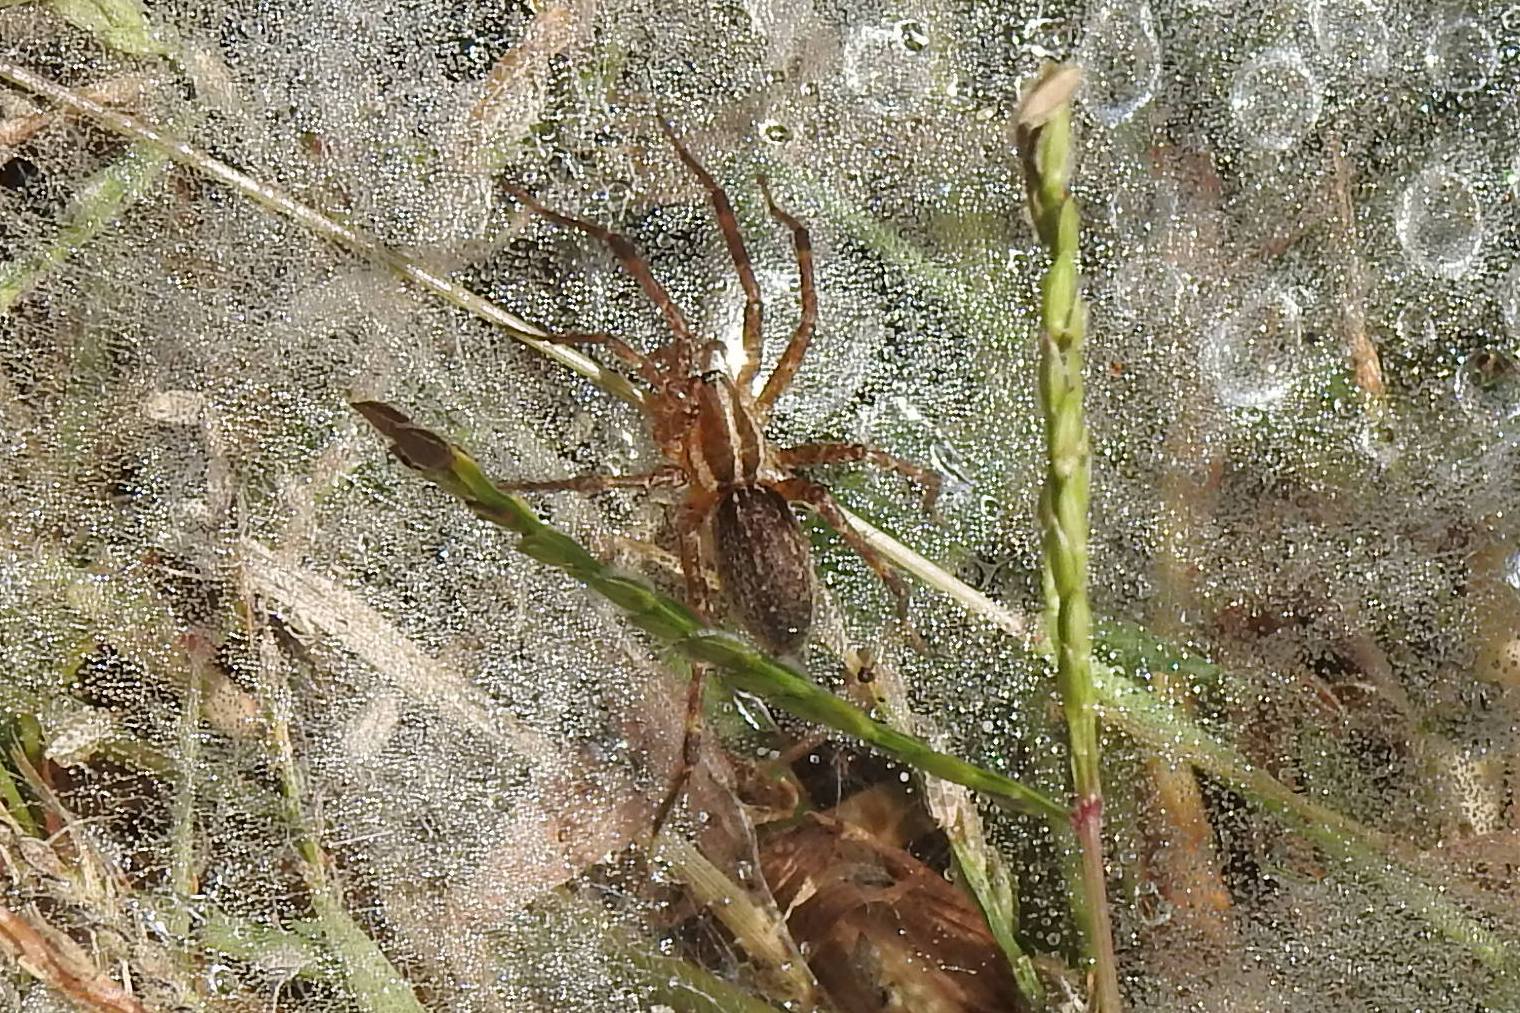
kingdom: Animalia
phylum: Arthropoda
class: Arachnida
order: Araneae
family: Agelenidae
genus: Agelenopsis
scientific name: Agelenopsis
